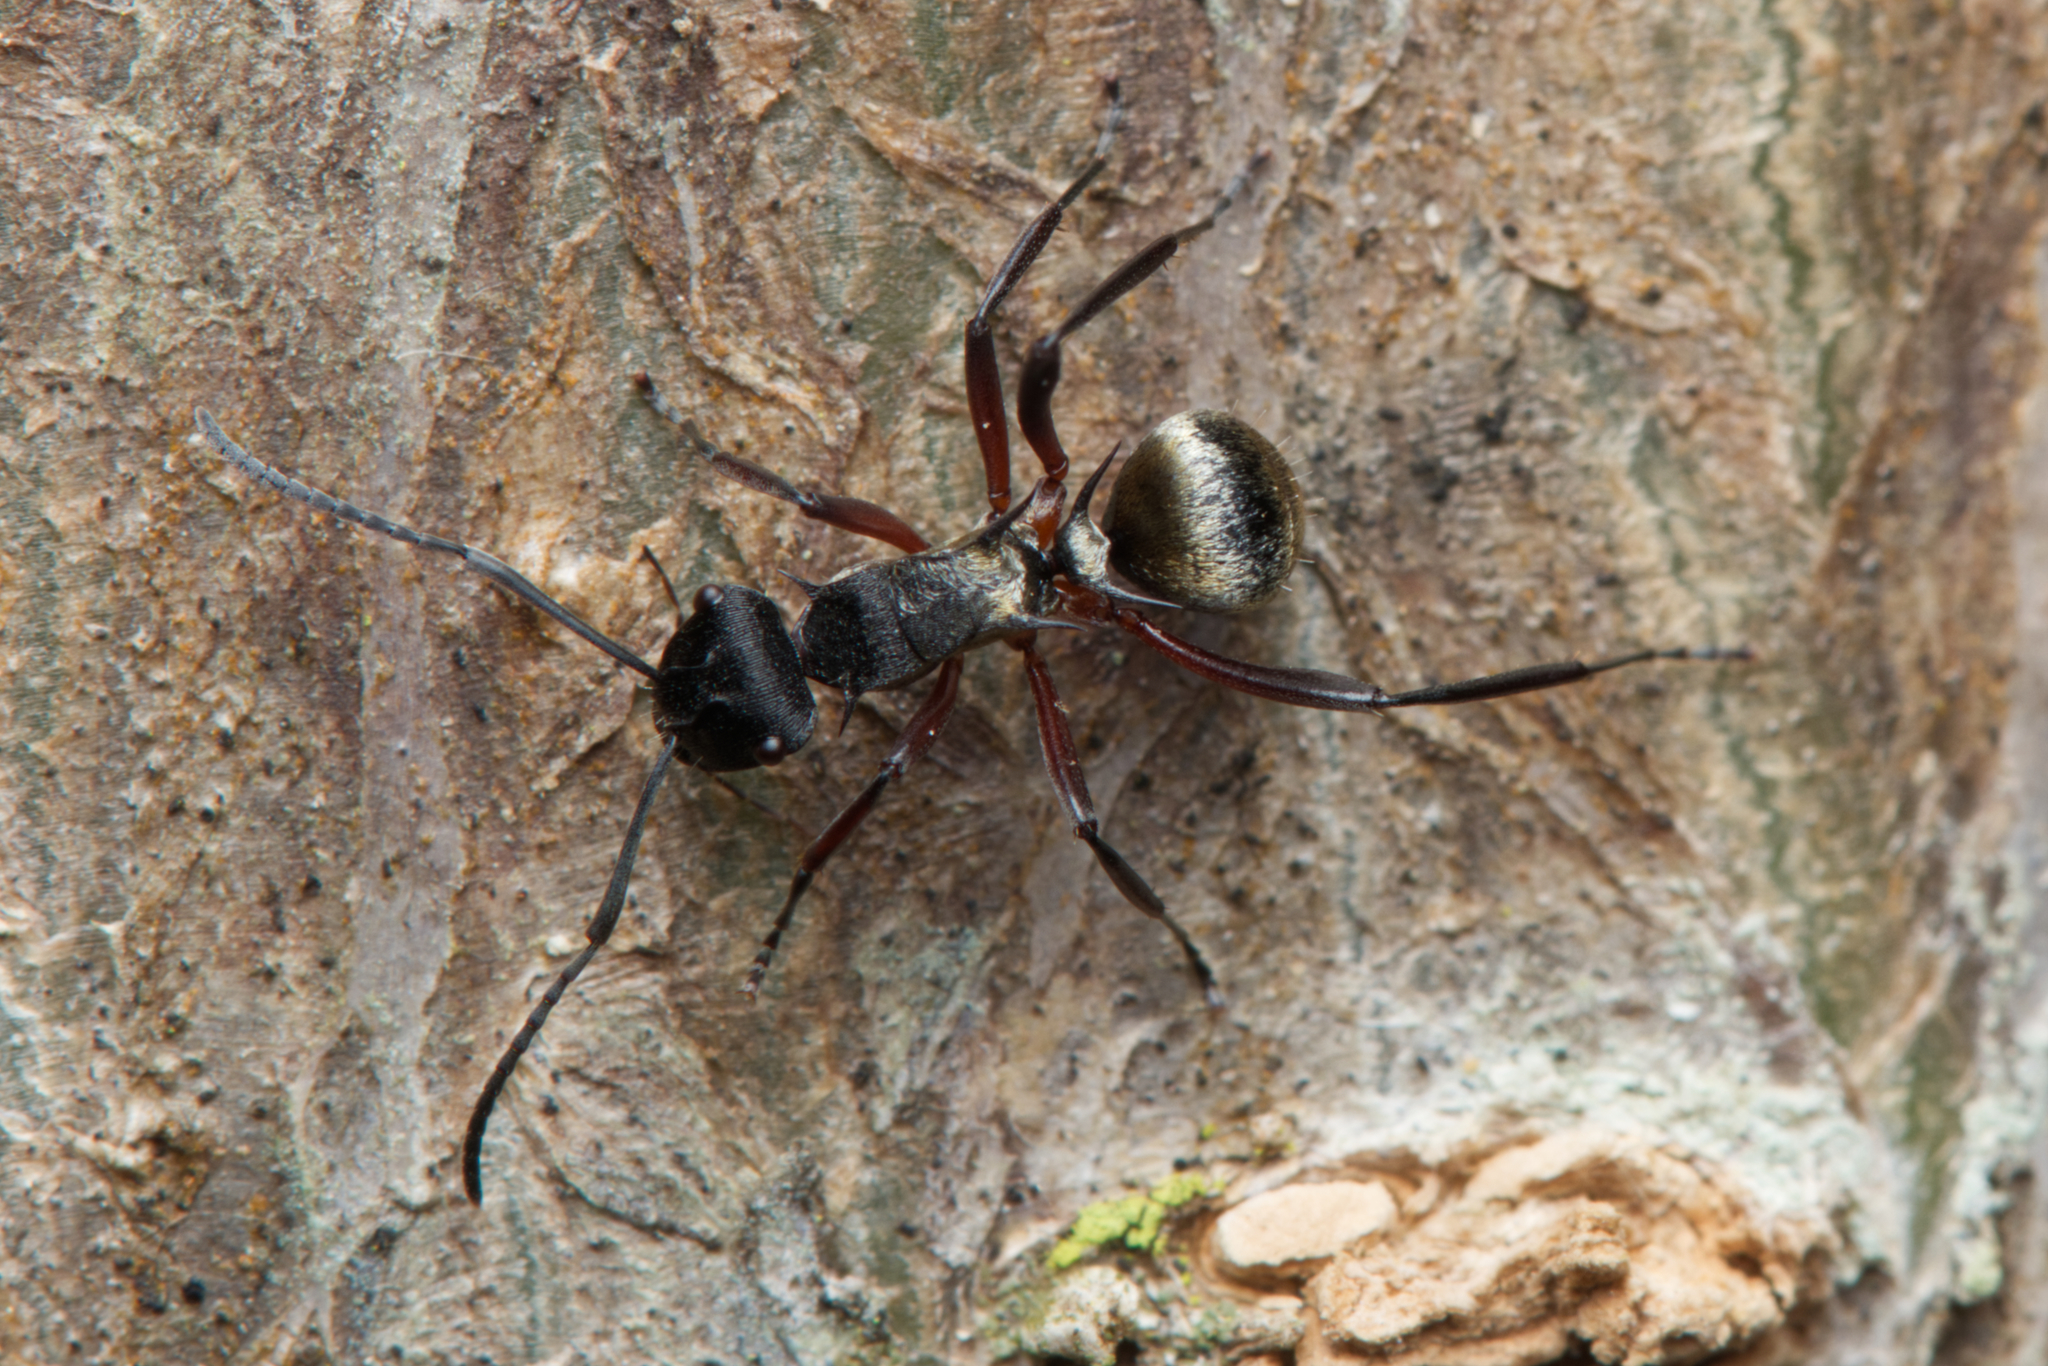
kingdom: Animalia
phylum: Arthropoda
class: Insecta
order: Hymenoptera
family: Formicidae
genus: Polyrhachis
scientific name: Polyrhachis rufifemur
